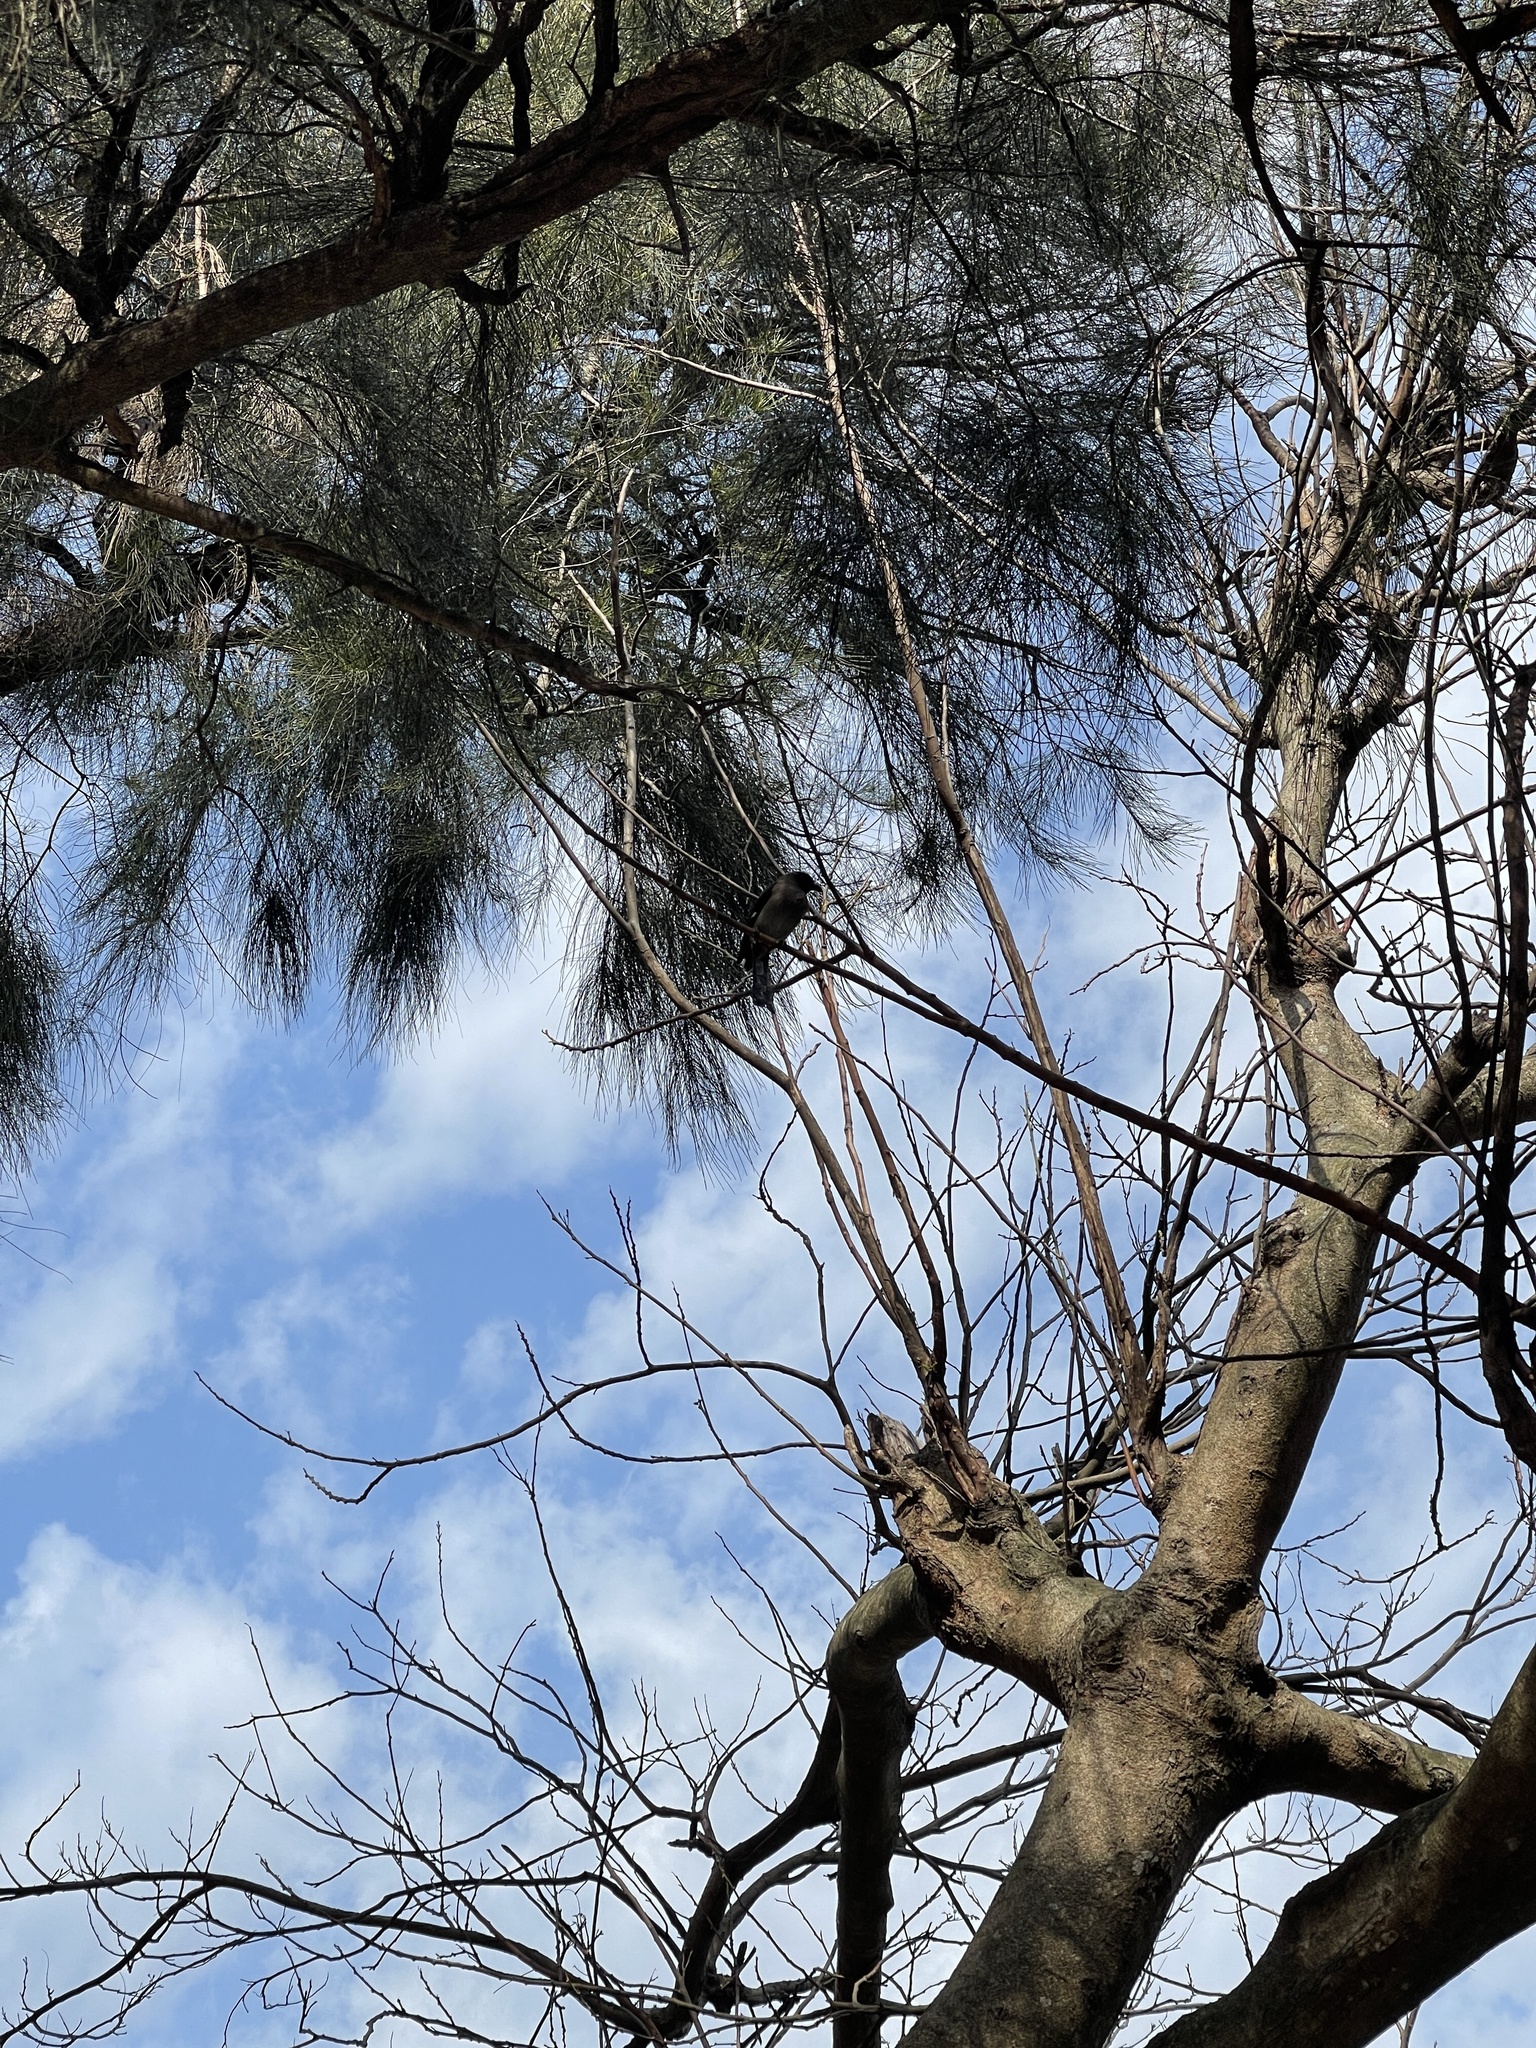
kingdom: Animalia
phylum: Chordata
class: Aves
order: Passeriformes
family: Corvidae
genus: Dendrocitta
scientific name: Dendrocitta formosae
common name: Grey treepie
